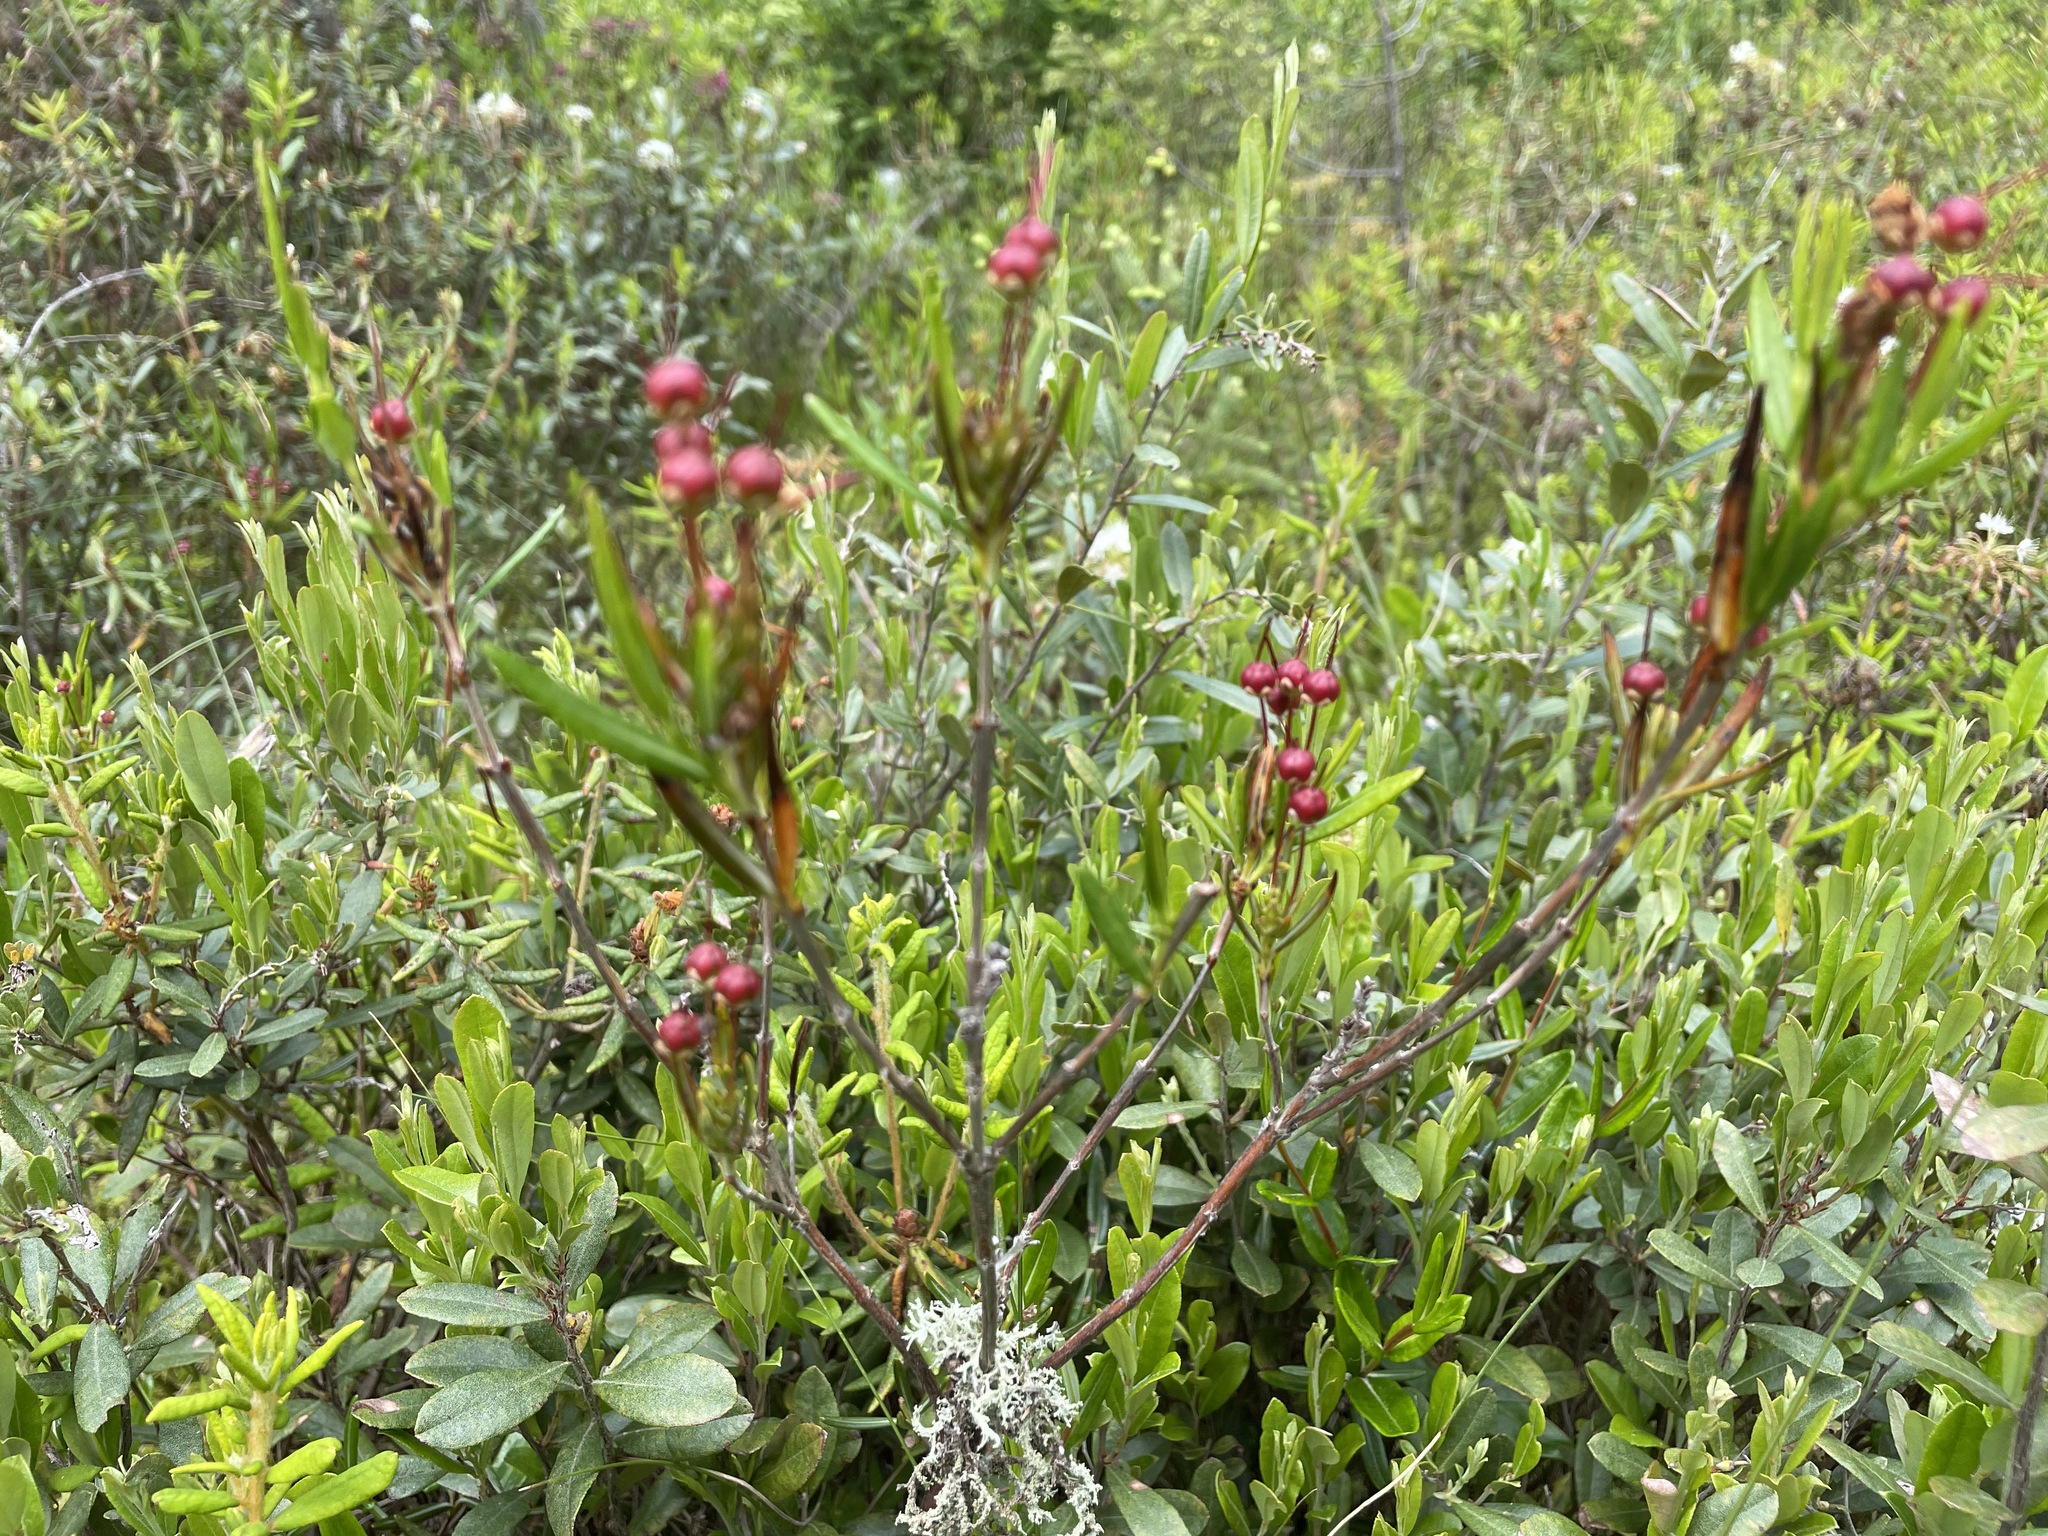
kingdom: Plantae
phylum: Tracheophyta
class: Magnoliopsida
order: Ericales
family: Ericaceae
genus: Kalmia
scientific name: Kalmia polifolia
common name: Bog-laurel
